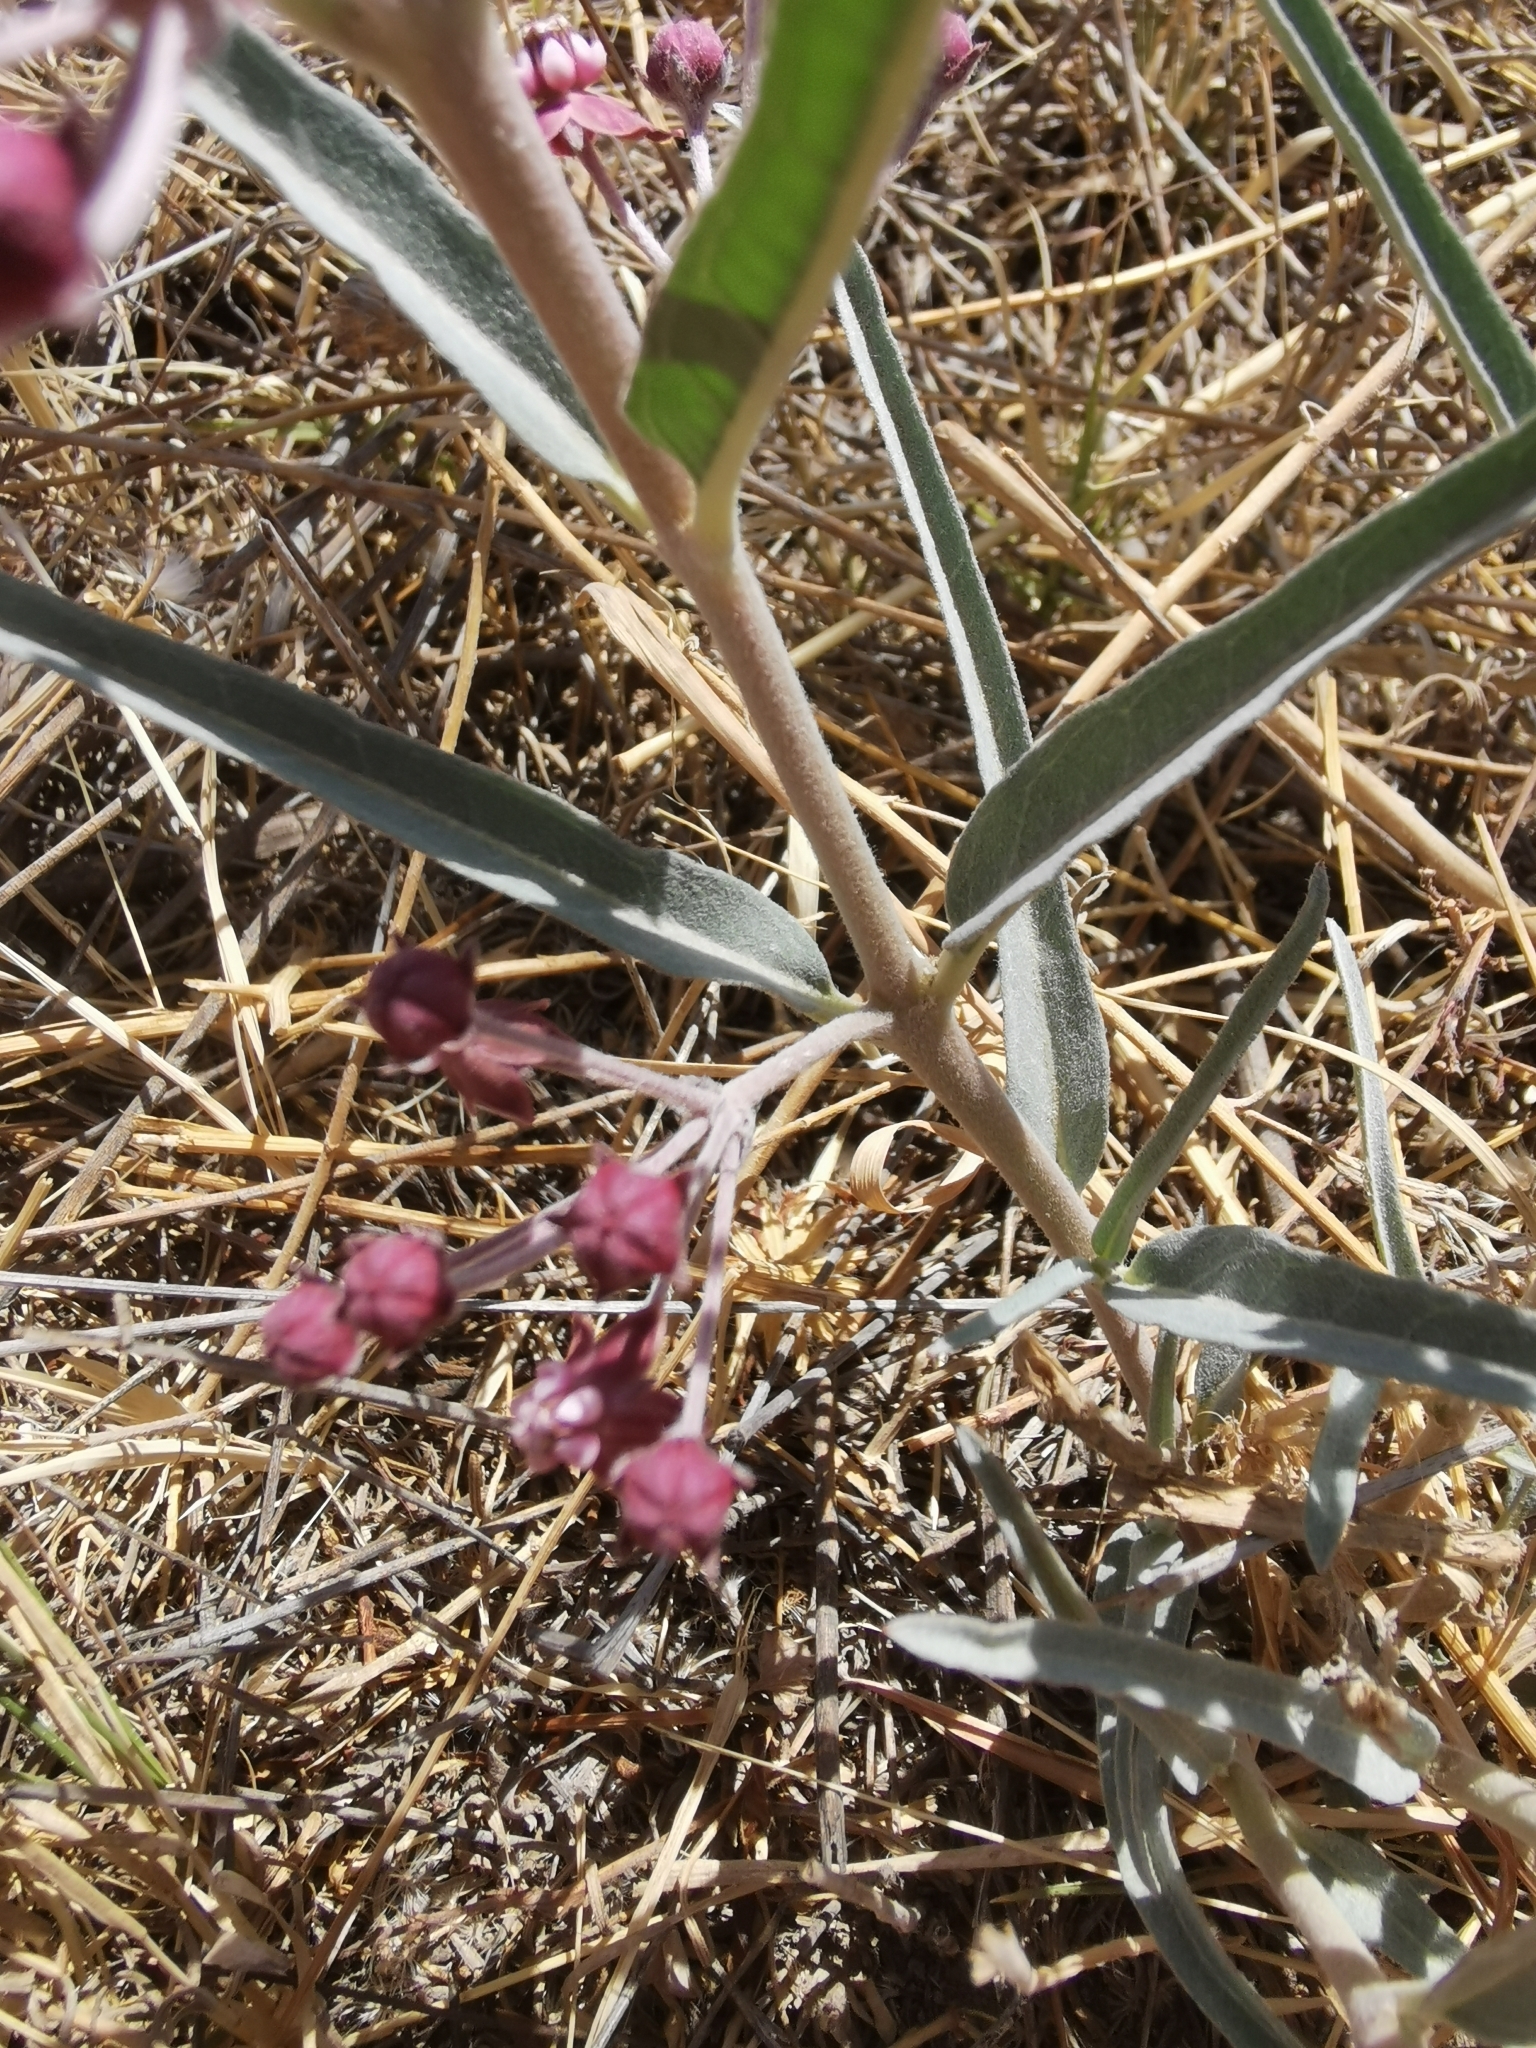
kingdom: Plantae
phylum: Tracheophyta
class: Magnoliopsida
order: Gentianales
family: Apocynaceae
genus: Asclepias
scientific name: Asclepias brachystephana
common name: Shortcrown milkweed
